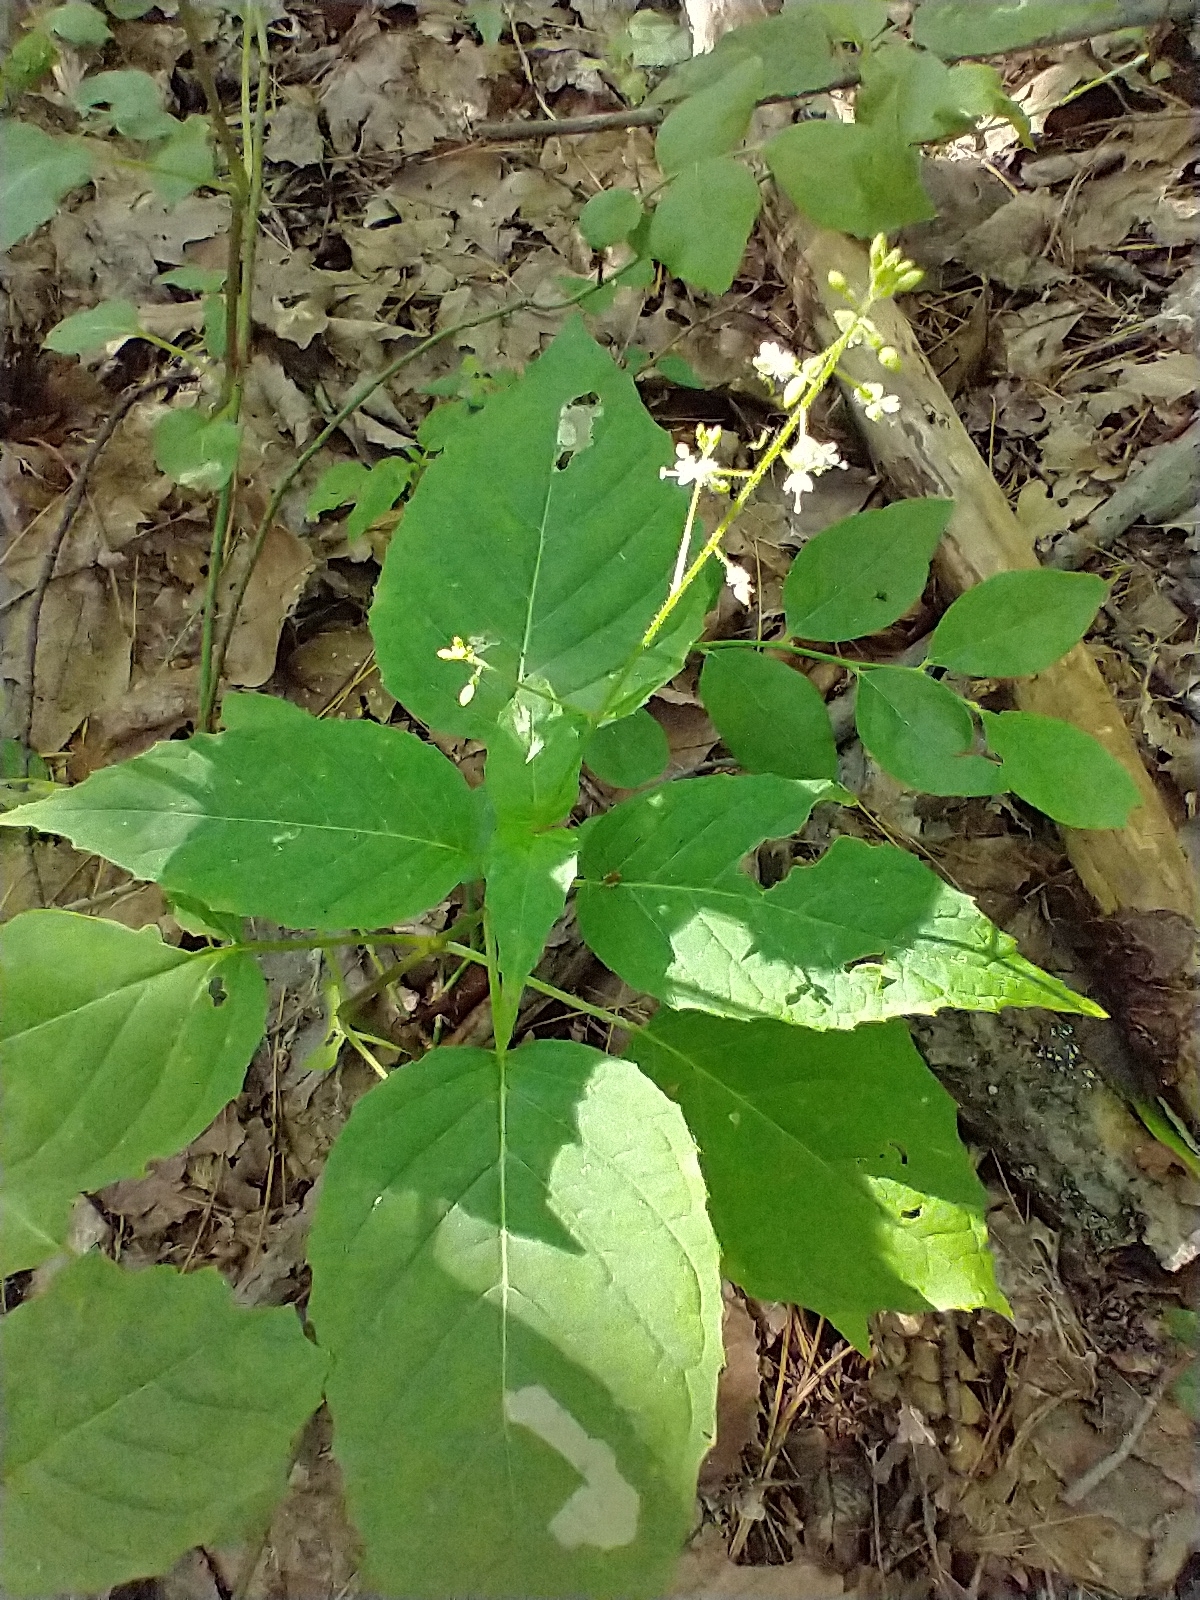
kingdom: Plantae
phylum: Tracheophyta
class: Magnoliopsida
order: Myrtales
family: Onagraceae
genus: Circaea
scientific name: Circaea canadensis
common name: Broad-leaved enchanter's nightshade
